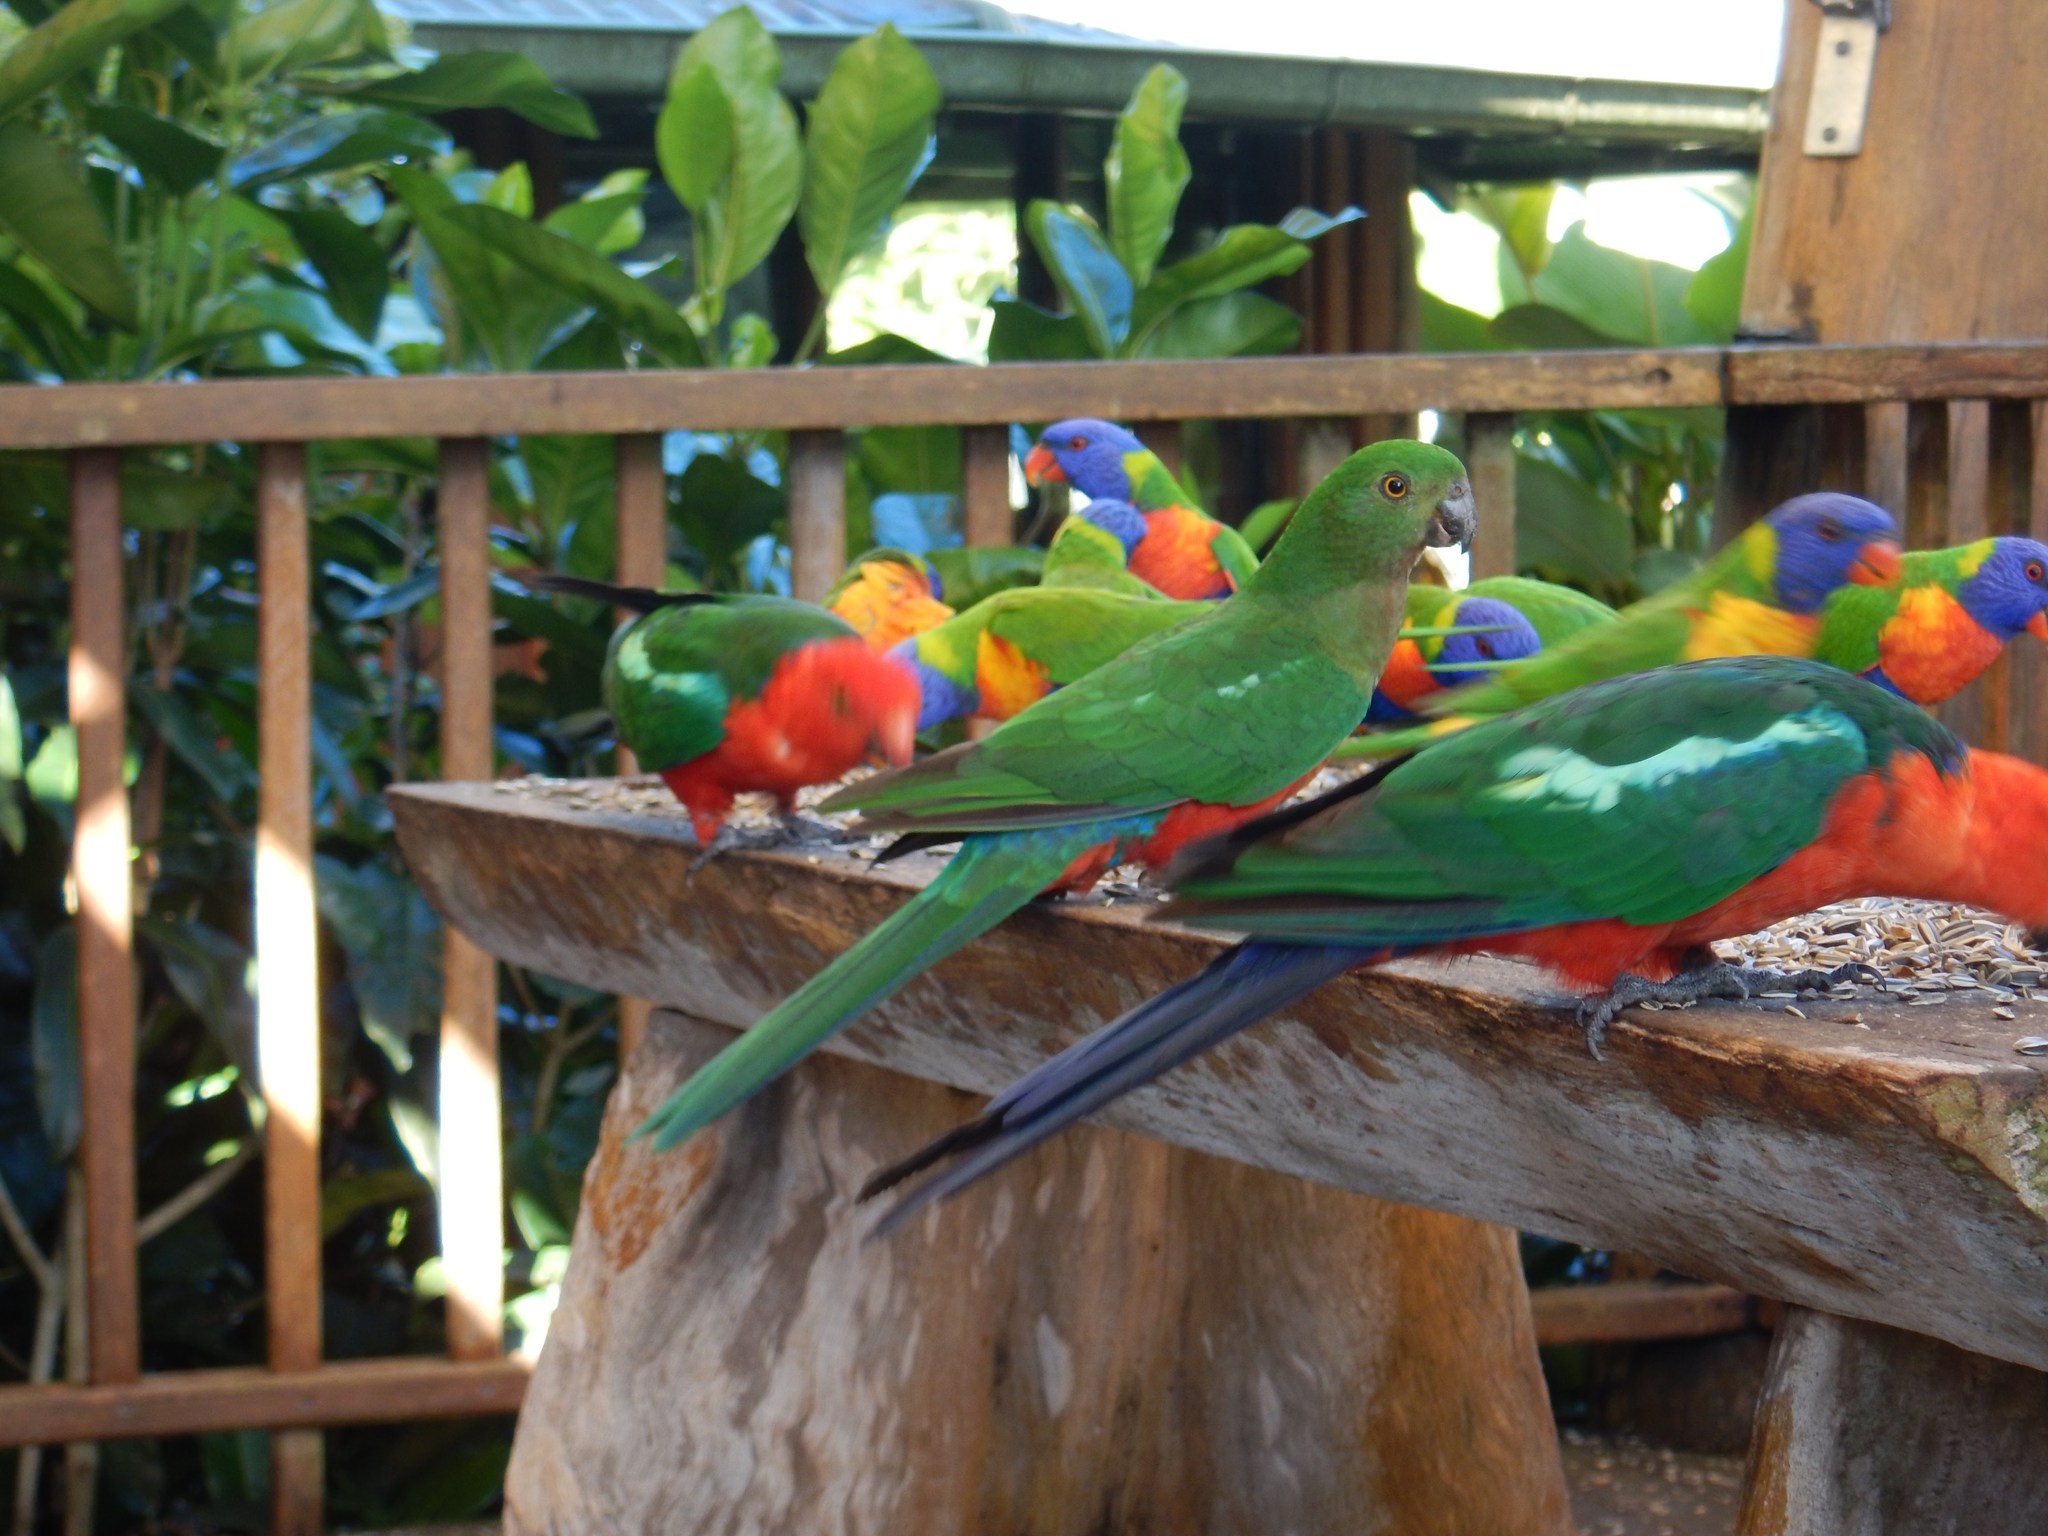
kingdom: Animalia
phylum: Chordata
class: Aves
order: Psittaciformes
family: Psittacidae
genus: Alisterus
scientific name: Alisterus scapularis
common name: Australian king parrot
